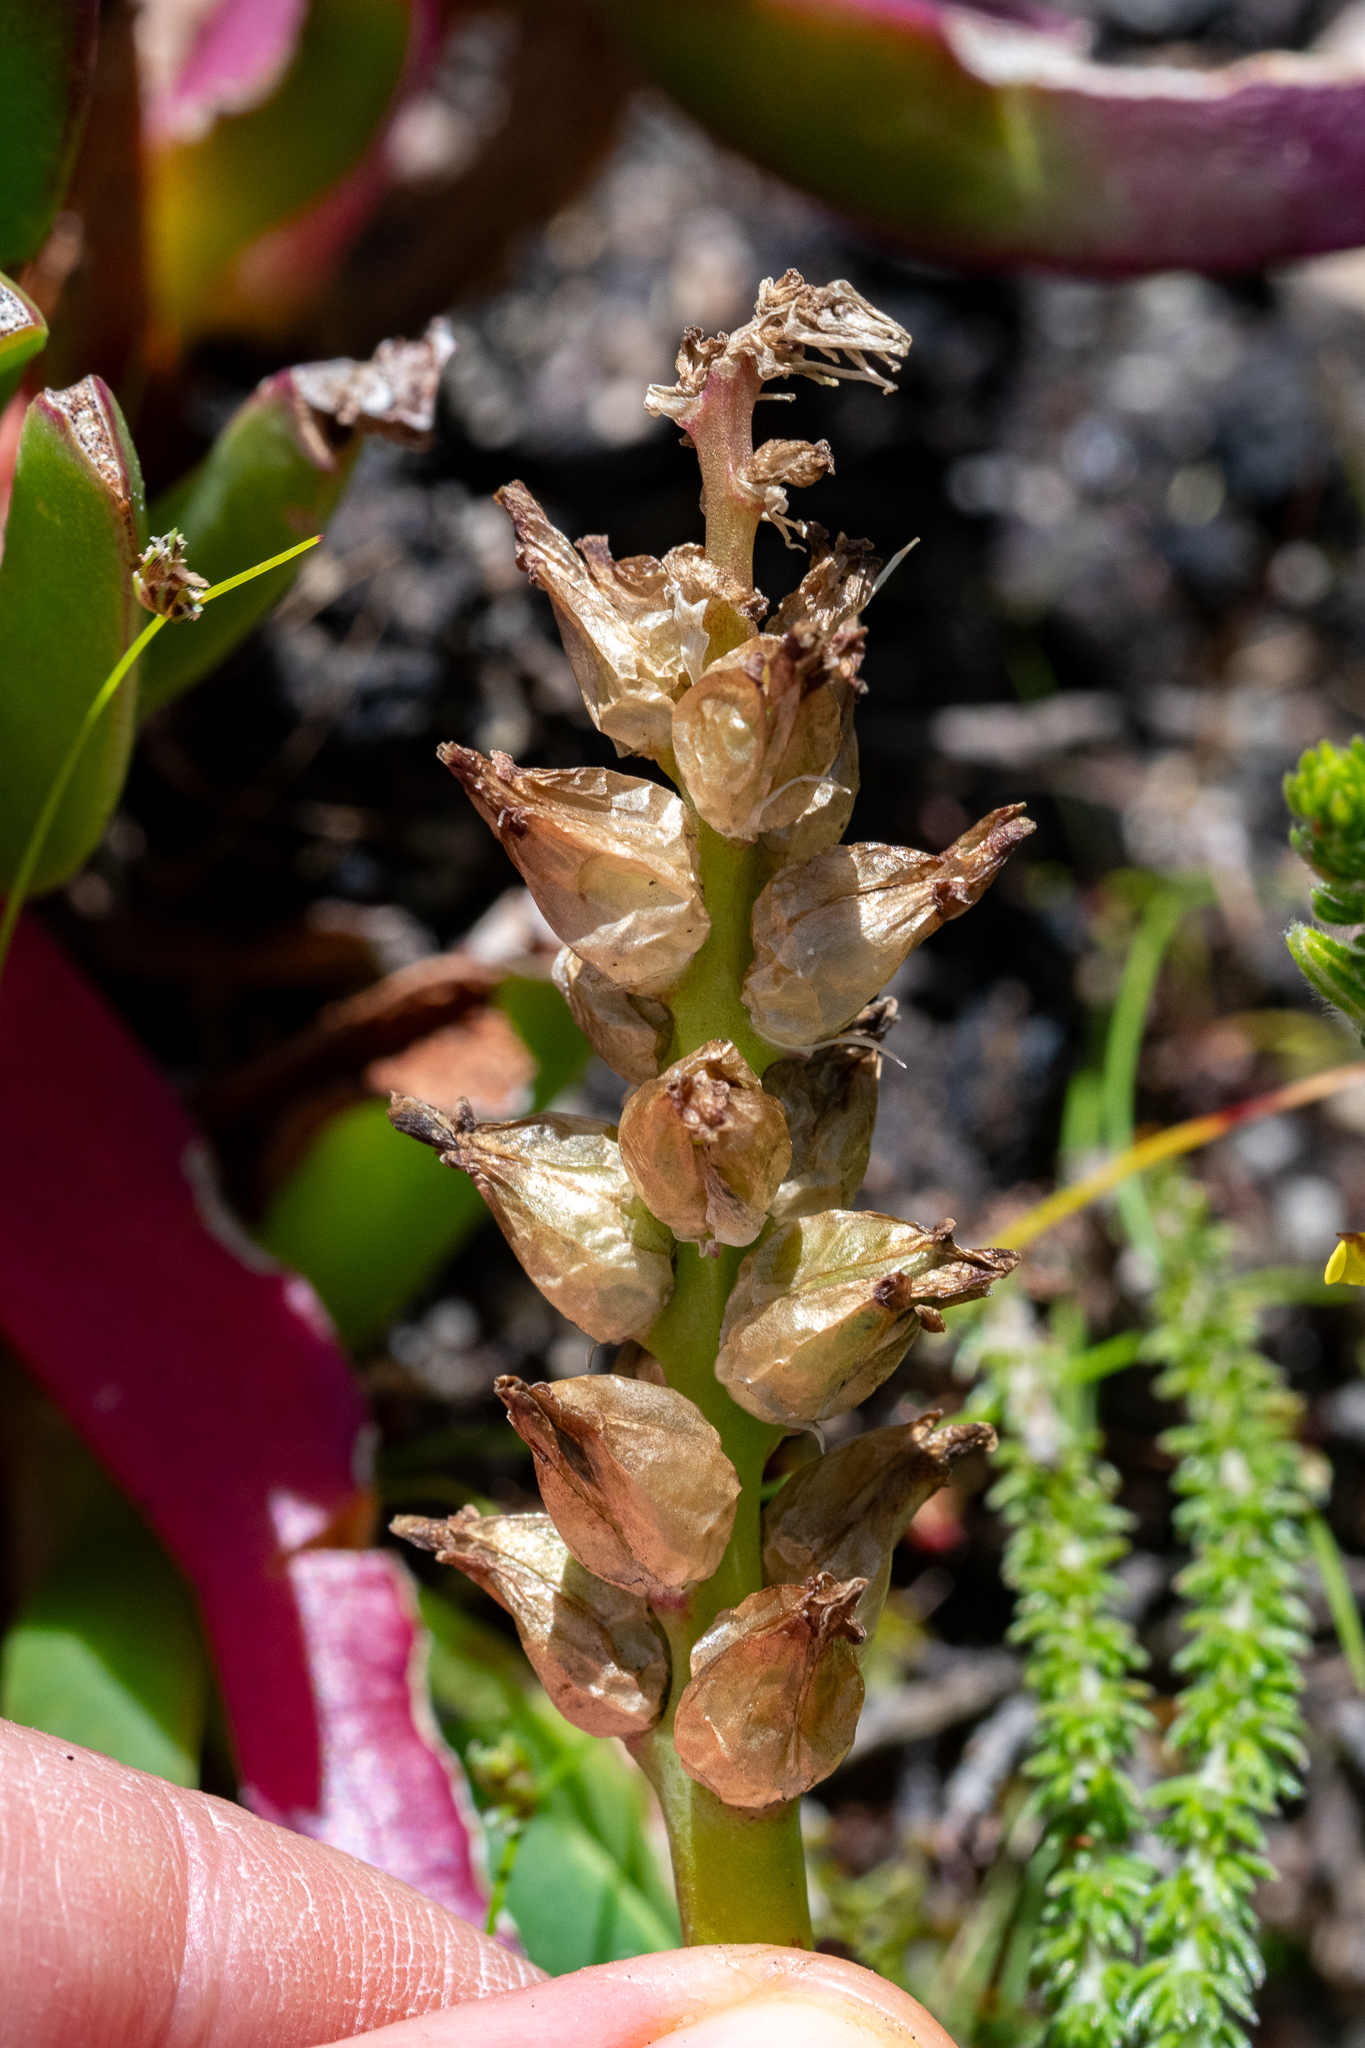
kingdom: Plantae
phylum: Tracheophyta
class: Liliopsida
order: Asparagales
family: Asparagaceae
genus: Lachenalia
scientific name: Lachenalia lutea
